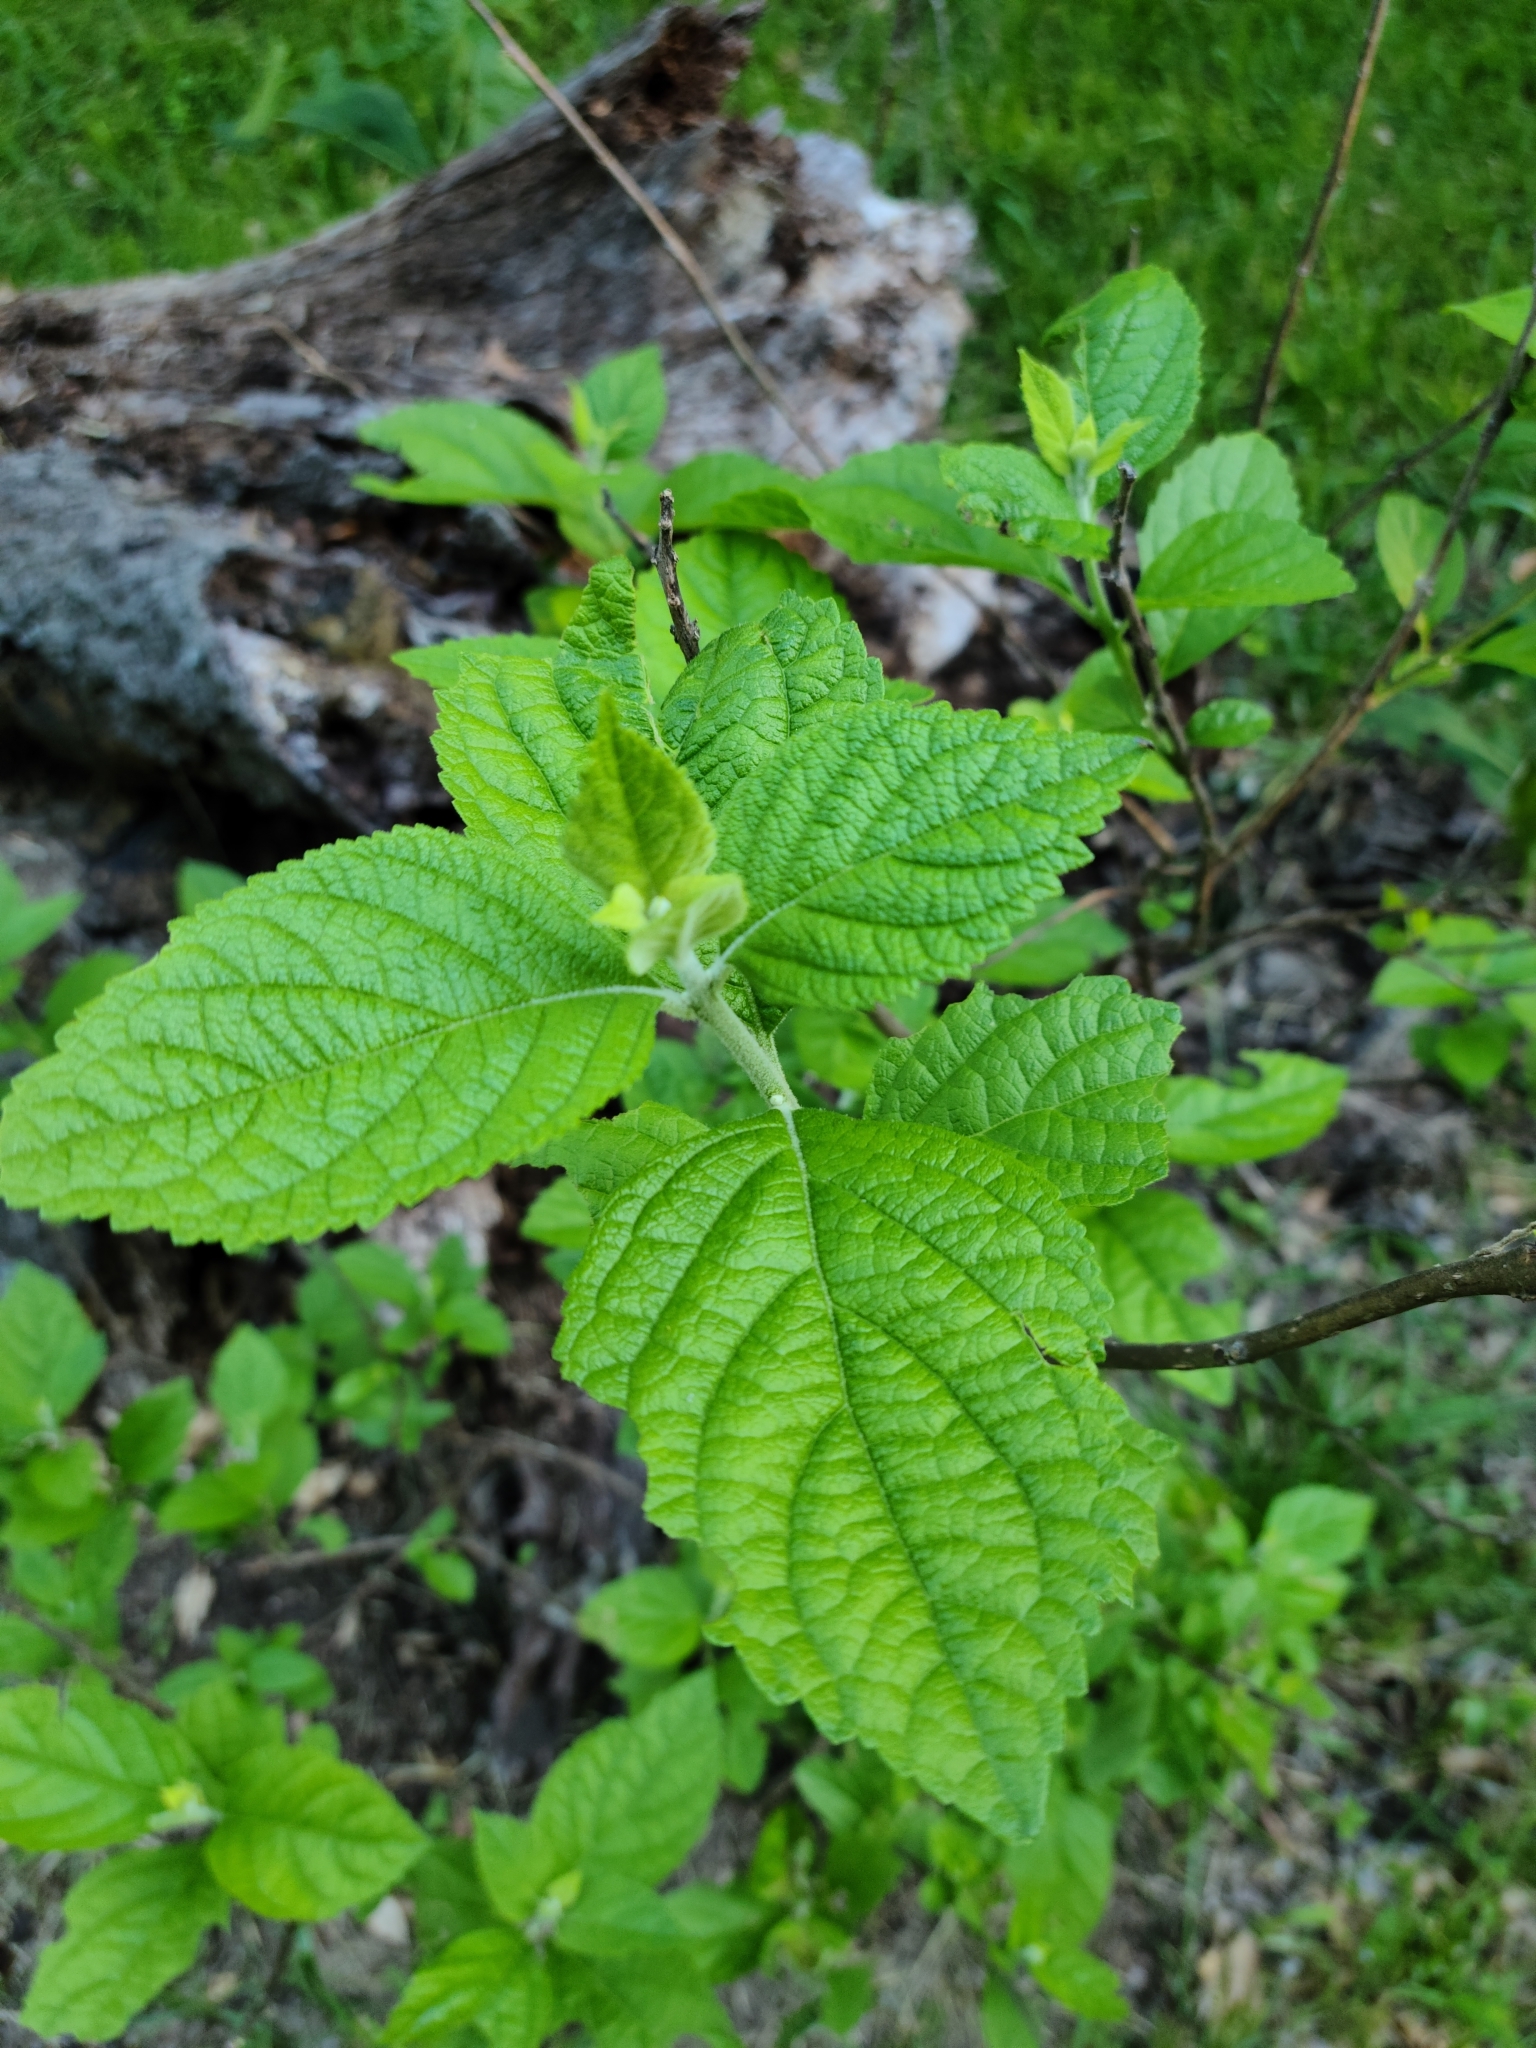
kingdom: Plantae
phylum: Tracheophyta
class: Magnoliopsida
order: Lamiales
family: Lamiaceae
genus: Callicarpa
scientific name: Callicarpa americana
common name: American beautyberry
